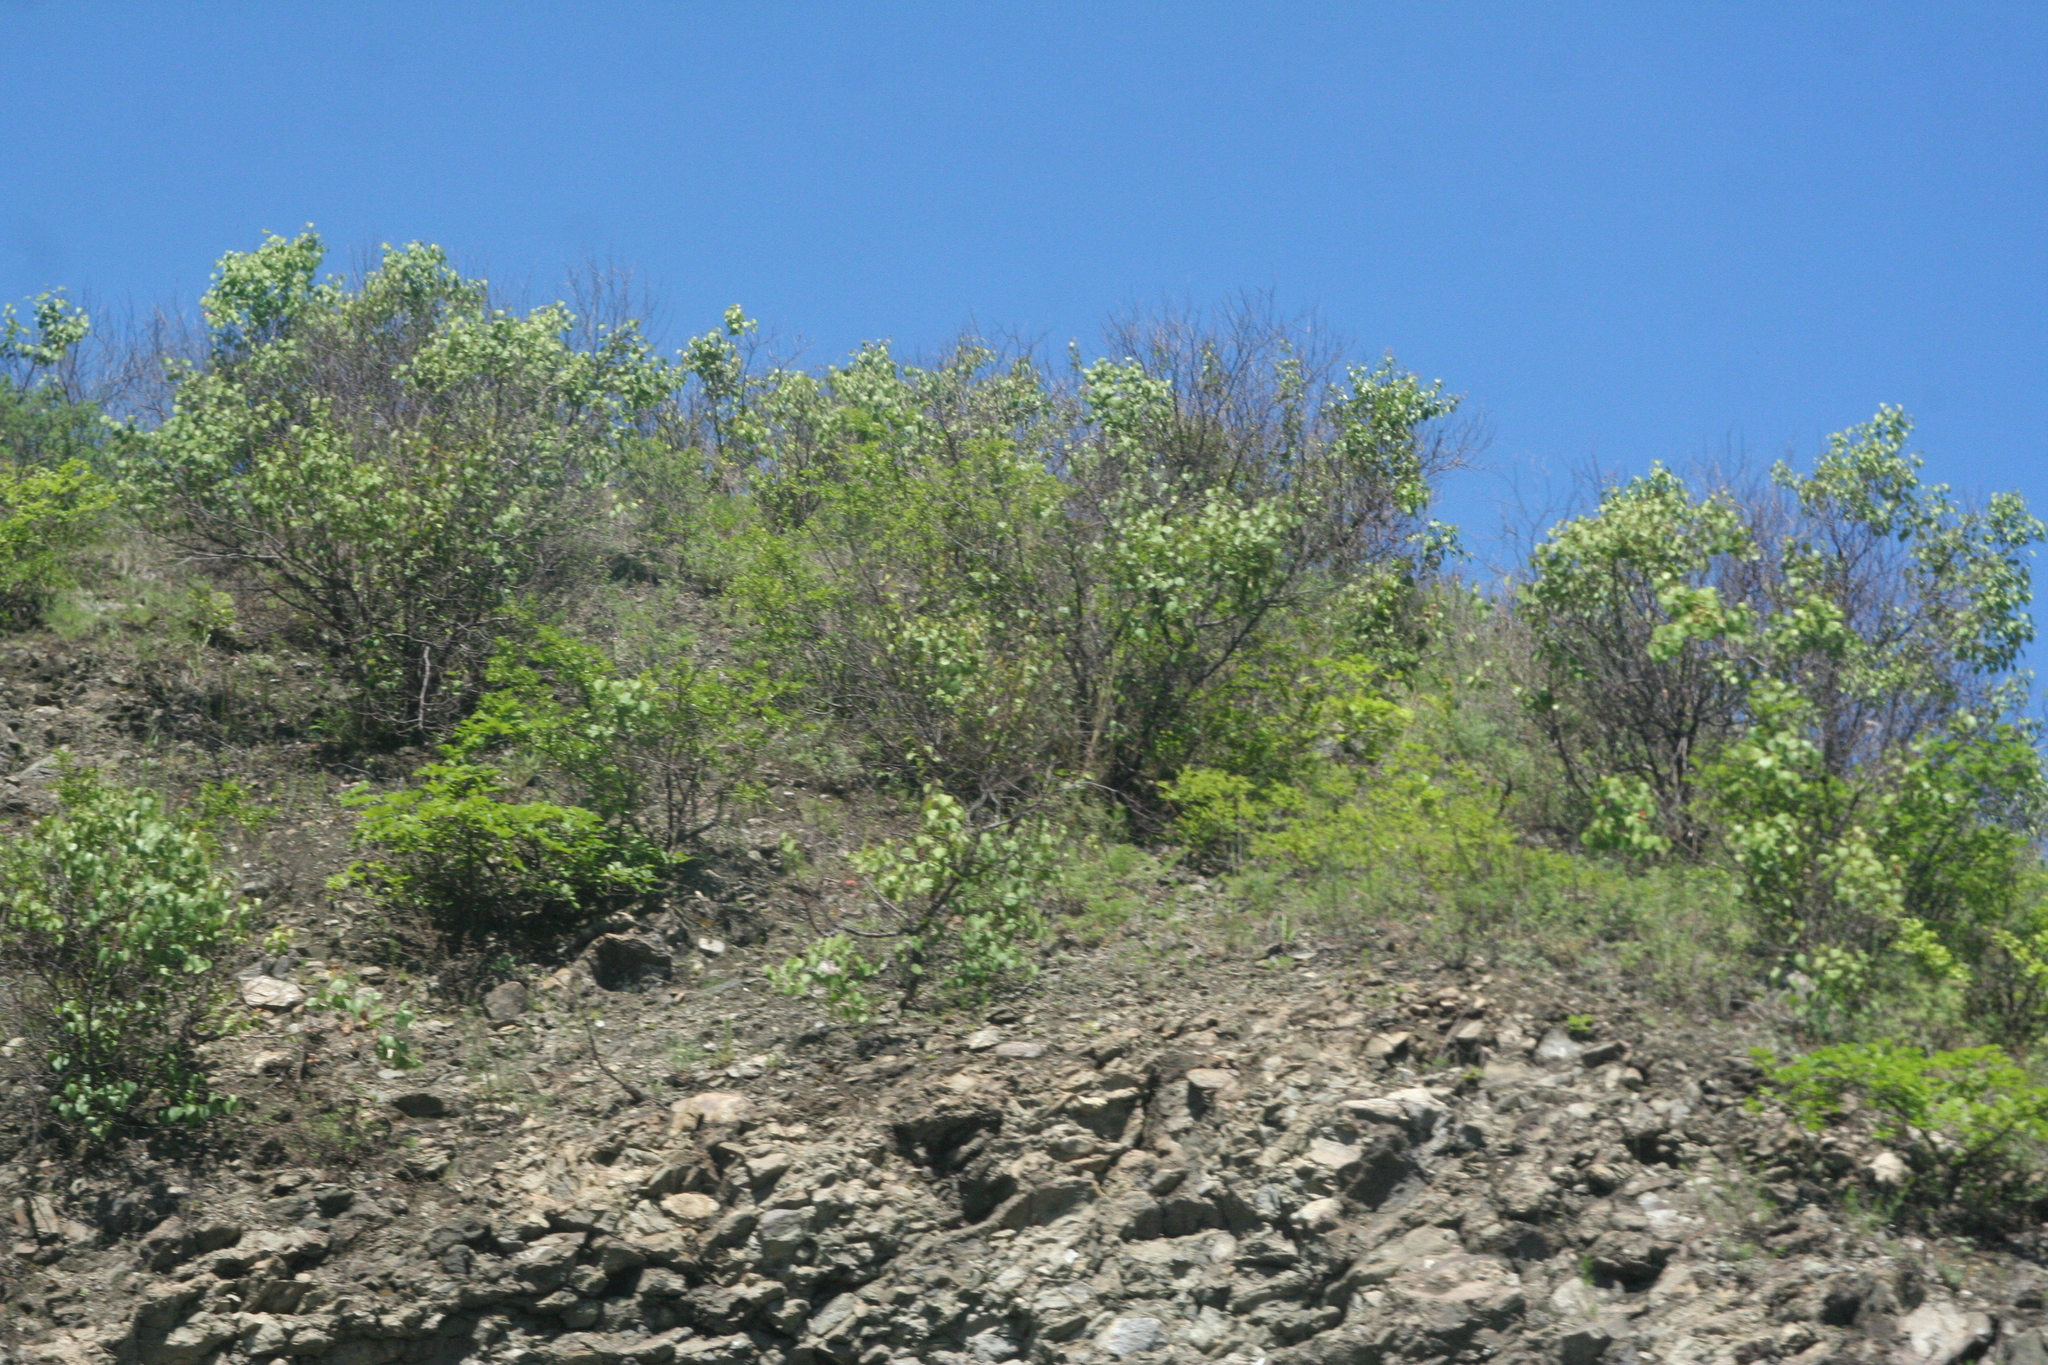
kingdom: Plantae
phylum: Tracheophyta
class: Magnoliopsida
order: Rosales
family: Rosaceae
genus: Prunus
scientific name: Prunus sibirica
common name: Siberian apricot
